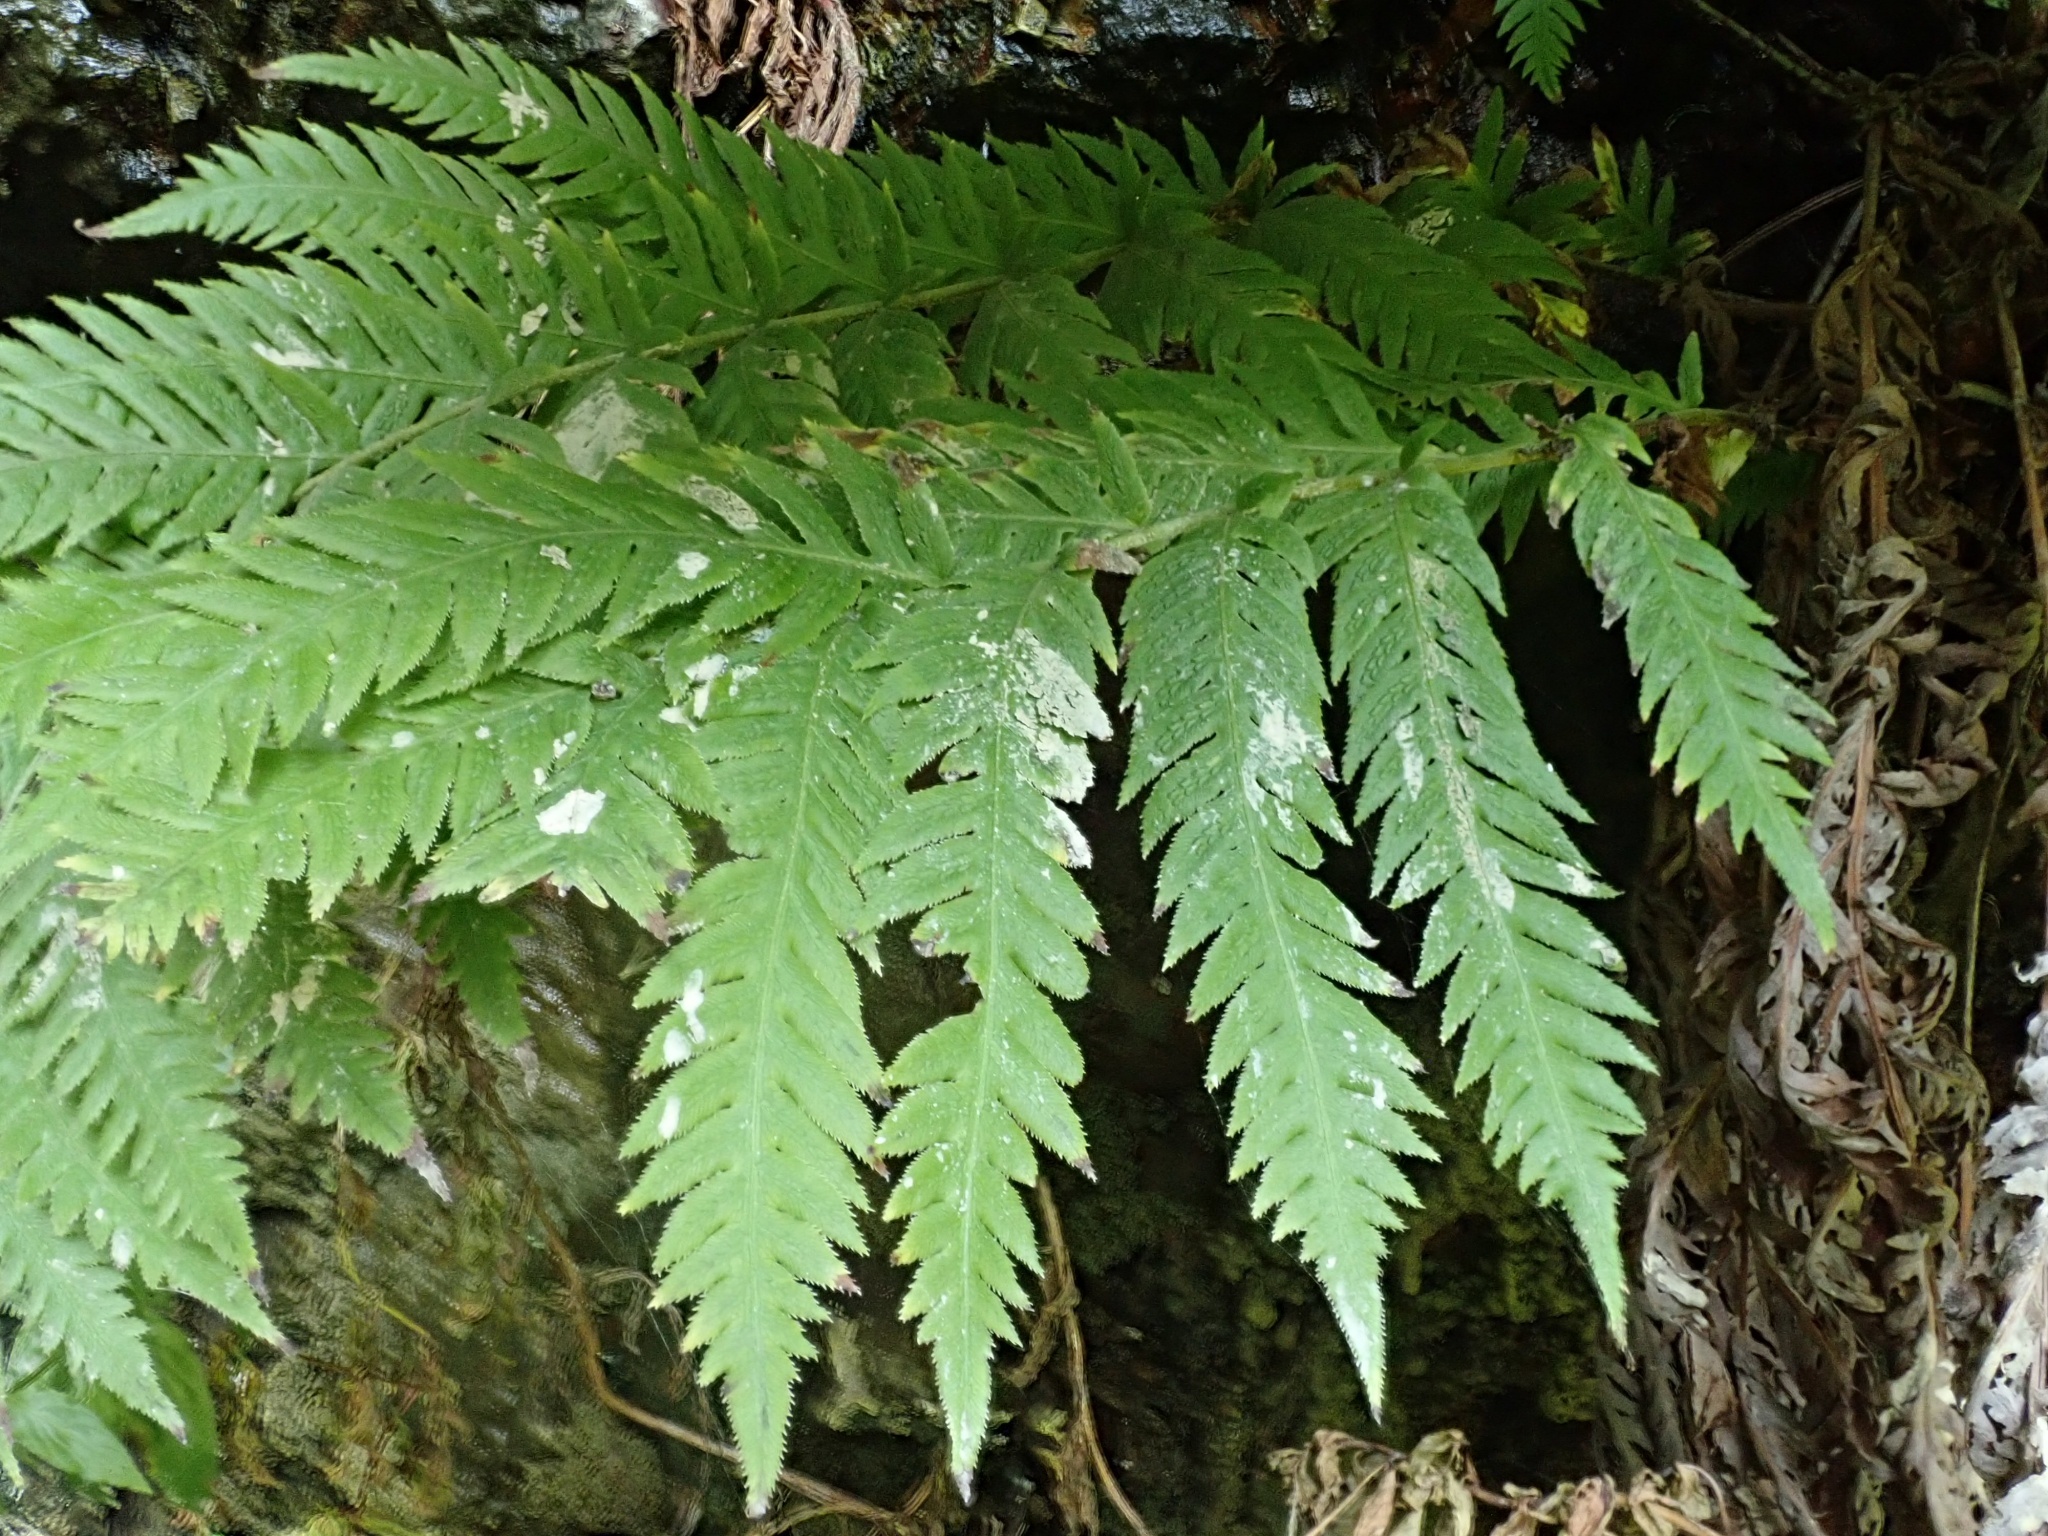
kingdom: Plantae
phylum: Tracheophyta
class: Polypodiopsida
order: Polypodiales
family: Blechnaceae
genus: Woodwardia
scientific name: Woodwardia fimbriata
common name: Giant chain fern
